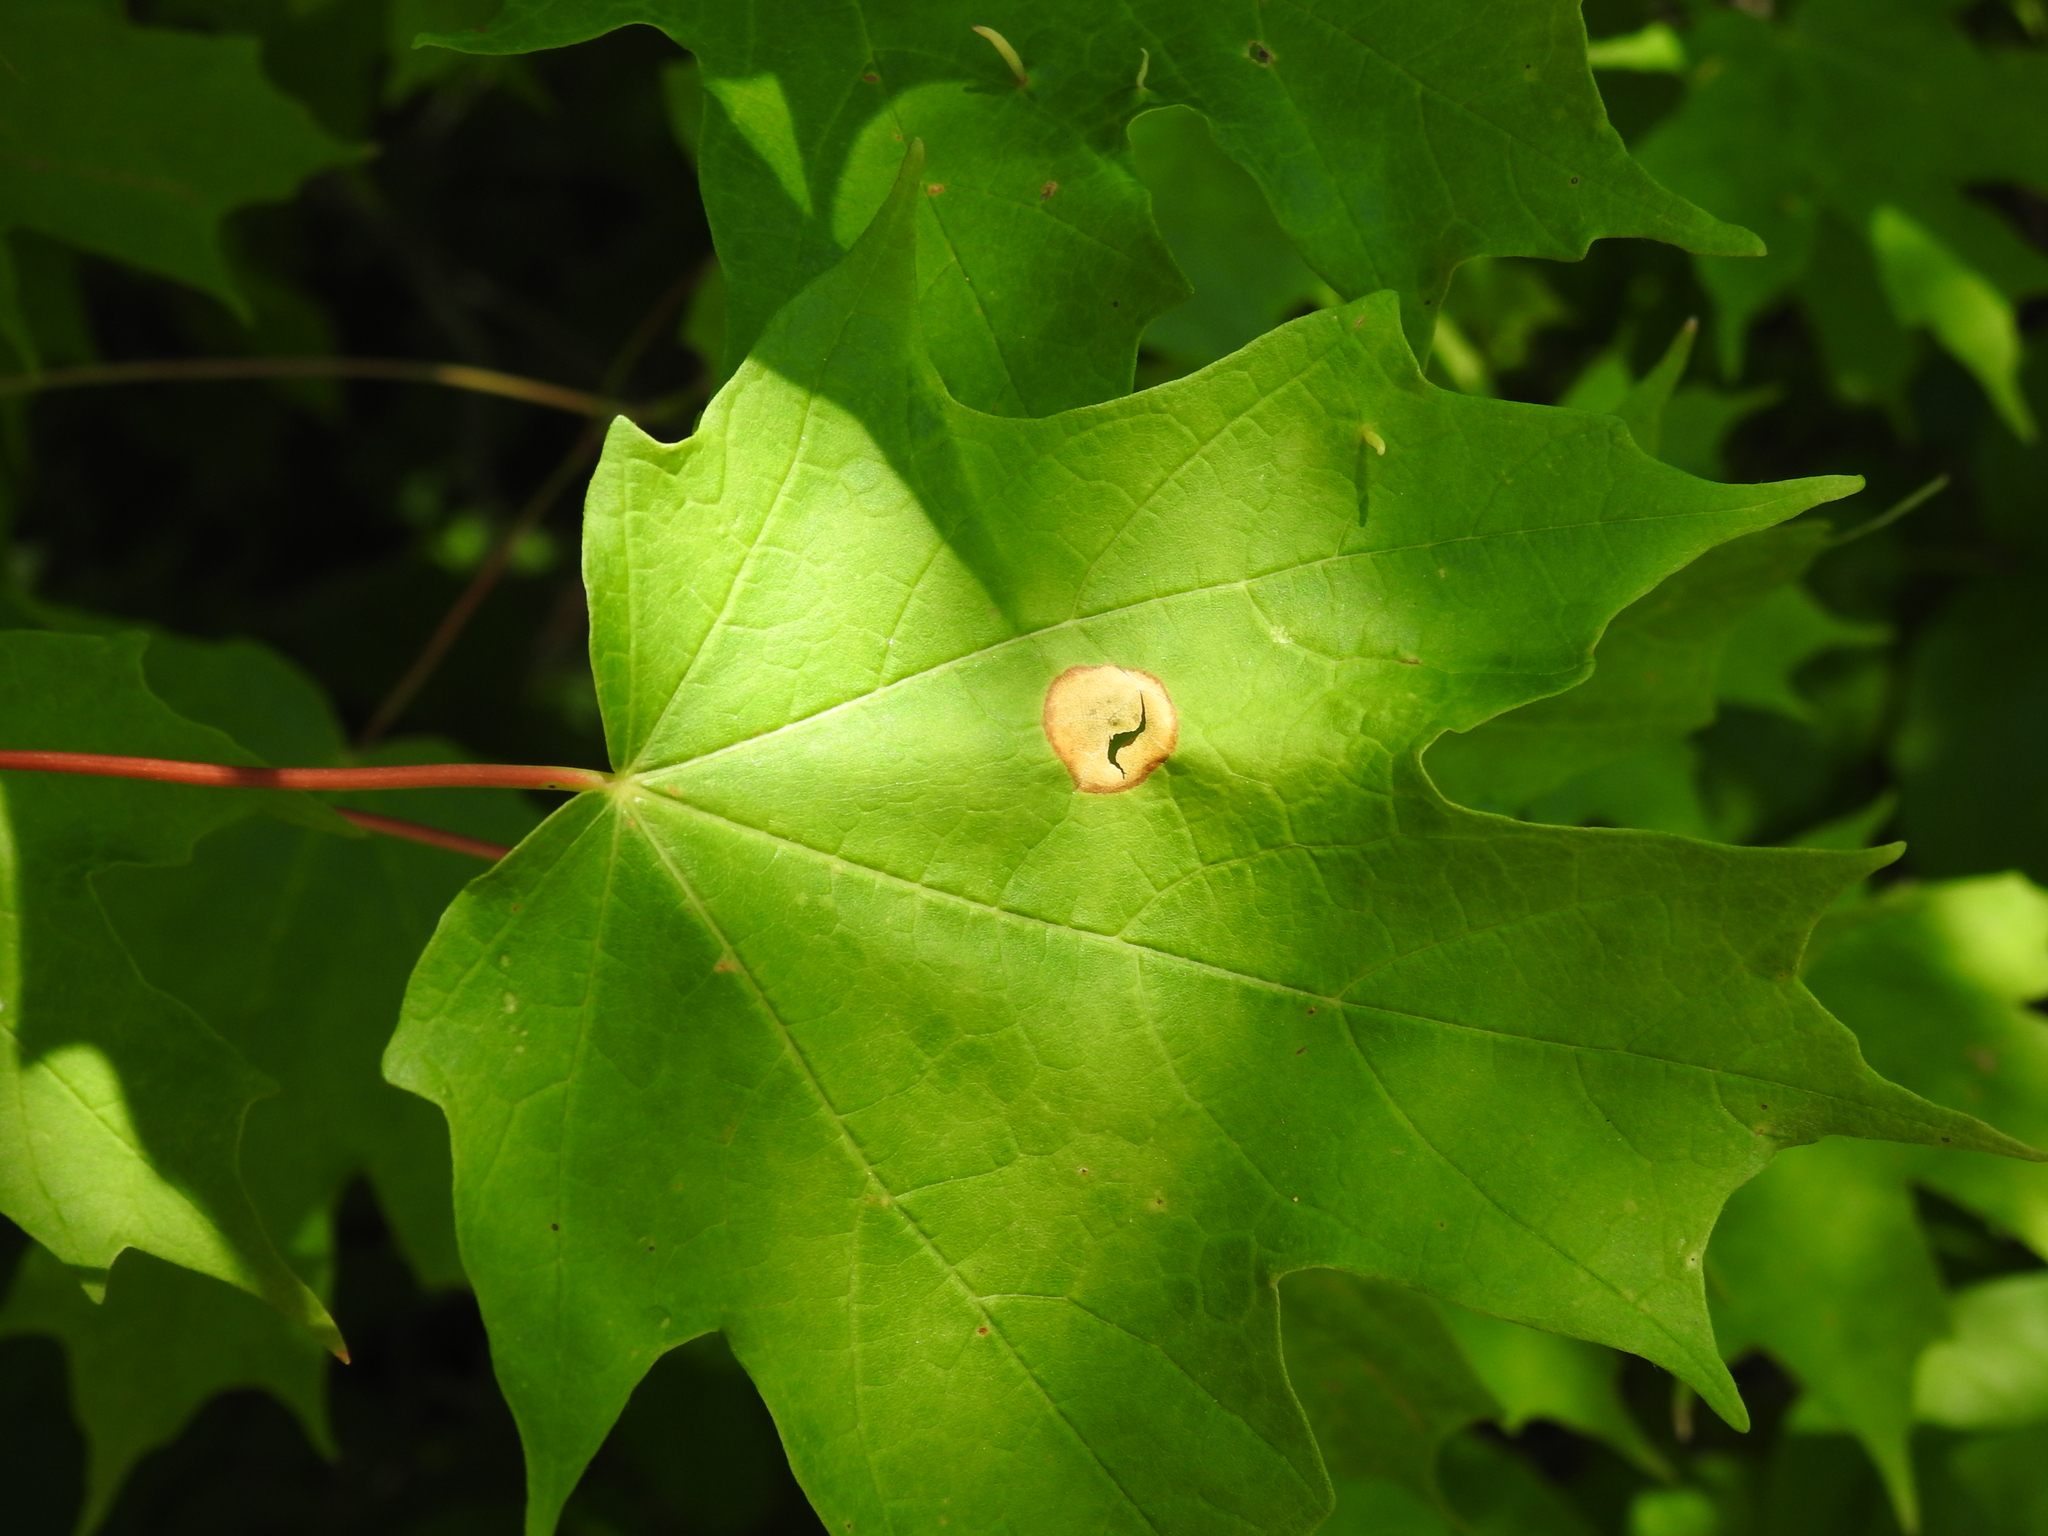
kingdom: Animalia
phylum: Arthropoda
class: Insecta
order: Diptera
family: Cecidomyiidae
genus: Acericecis
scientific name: Acericecis ocellaris
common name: Ocellate gall midge
